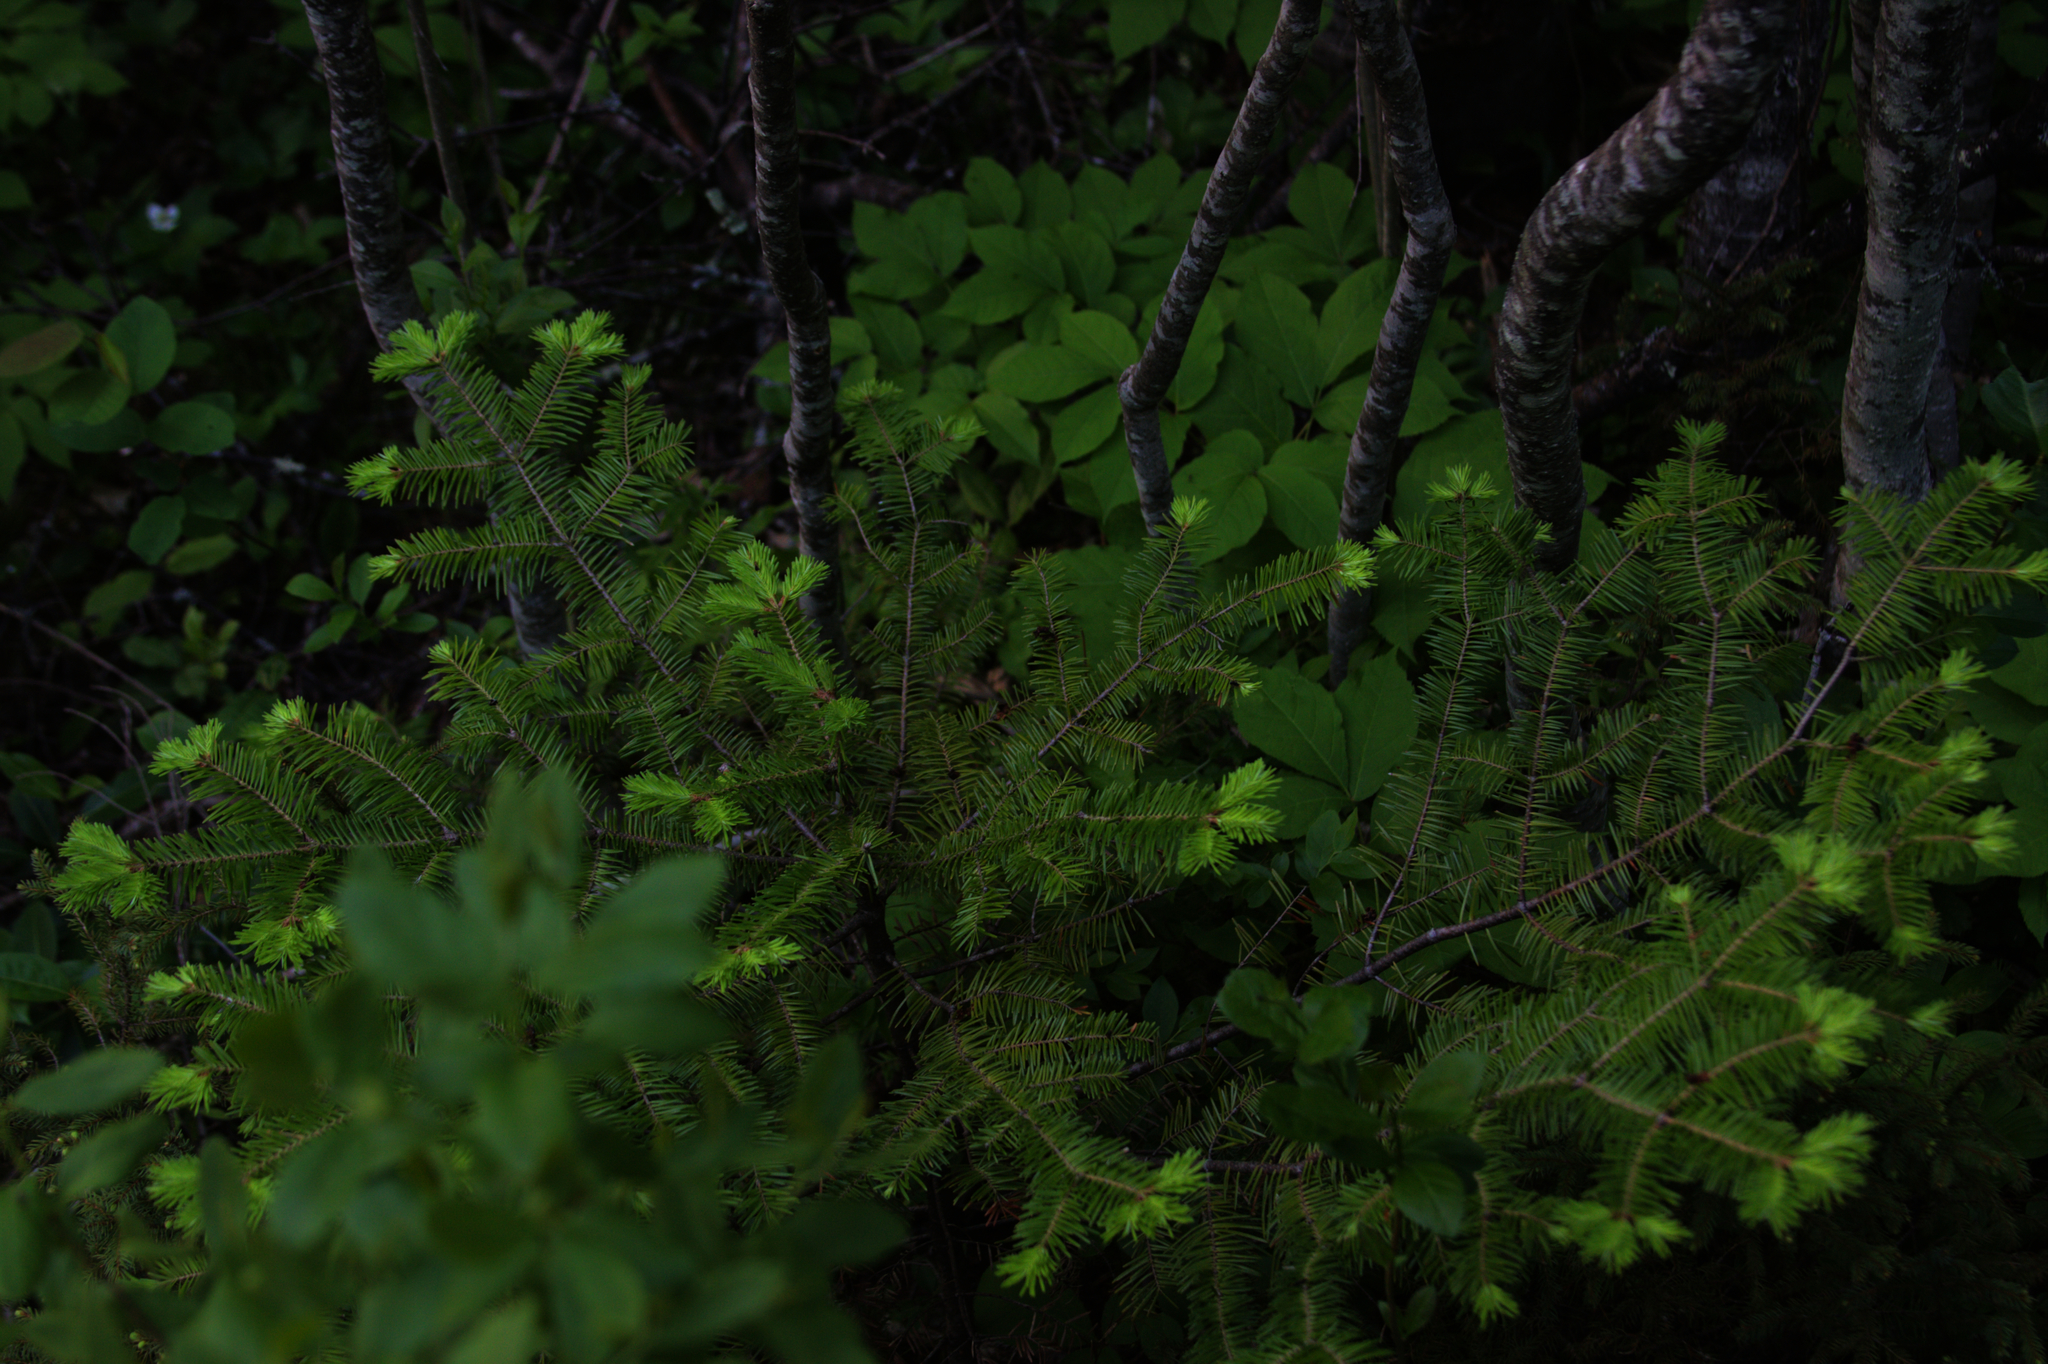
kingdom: Plantae
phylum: Tracheophyta
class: Pinopsida
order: Pinales
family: Pinaceae
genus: Abies
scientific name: Abies balsamea
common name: Balsam fir
